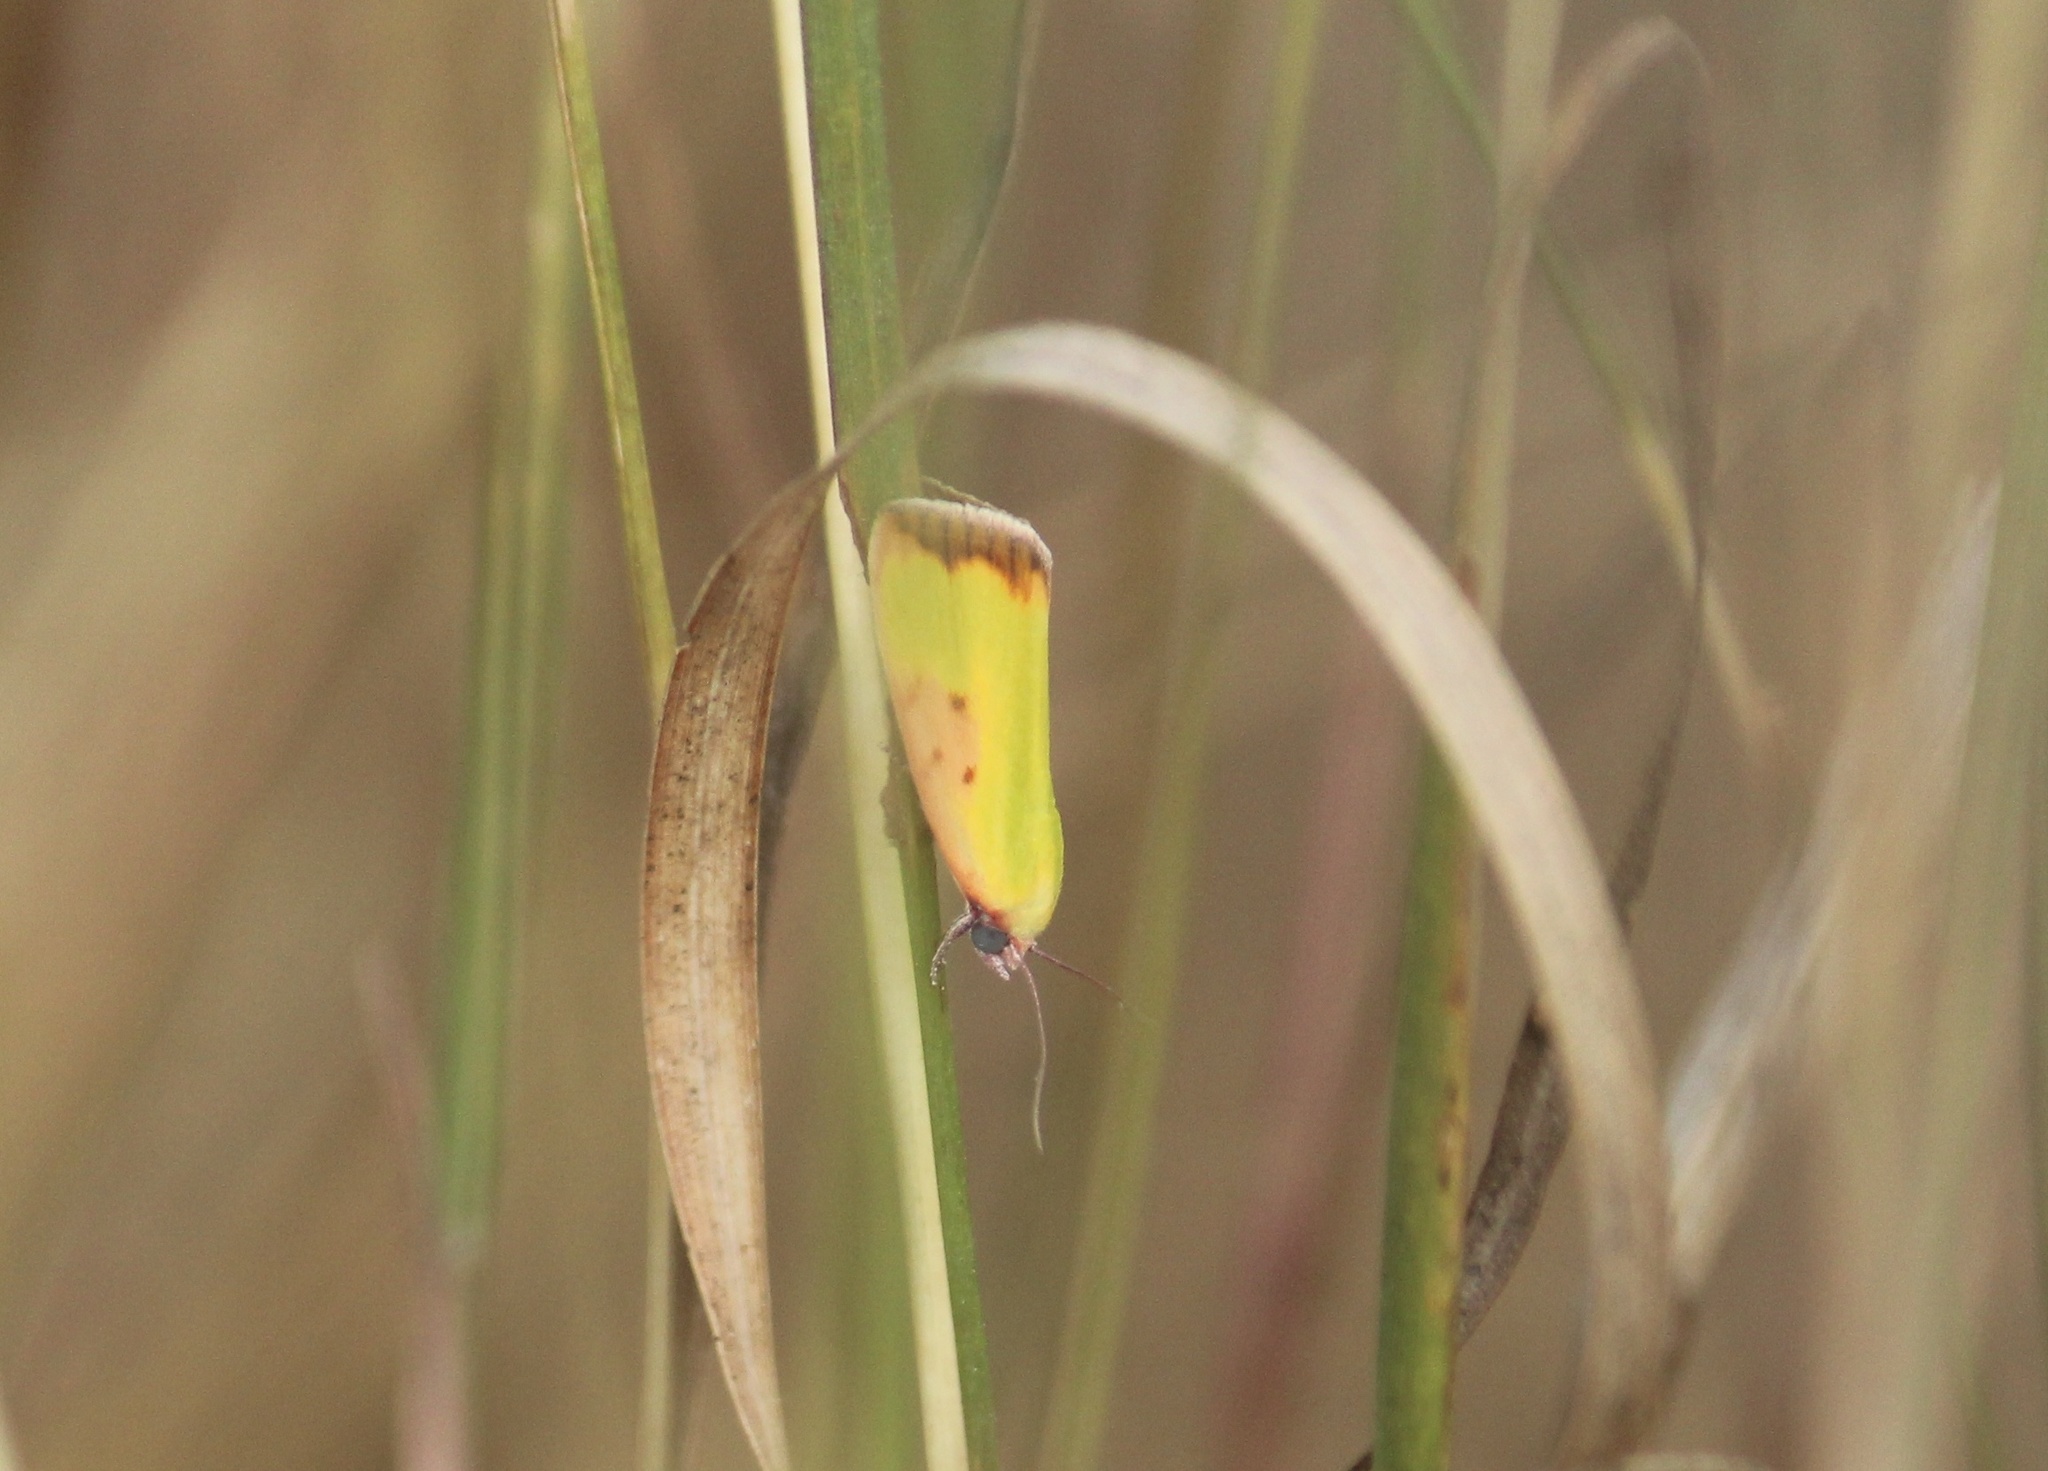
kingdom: Animalia
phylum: Arthropoda
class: Insecta
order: Lepidoptera
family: Nolidae
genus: Earias
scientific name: Earias cupreoviridis
